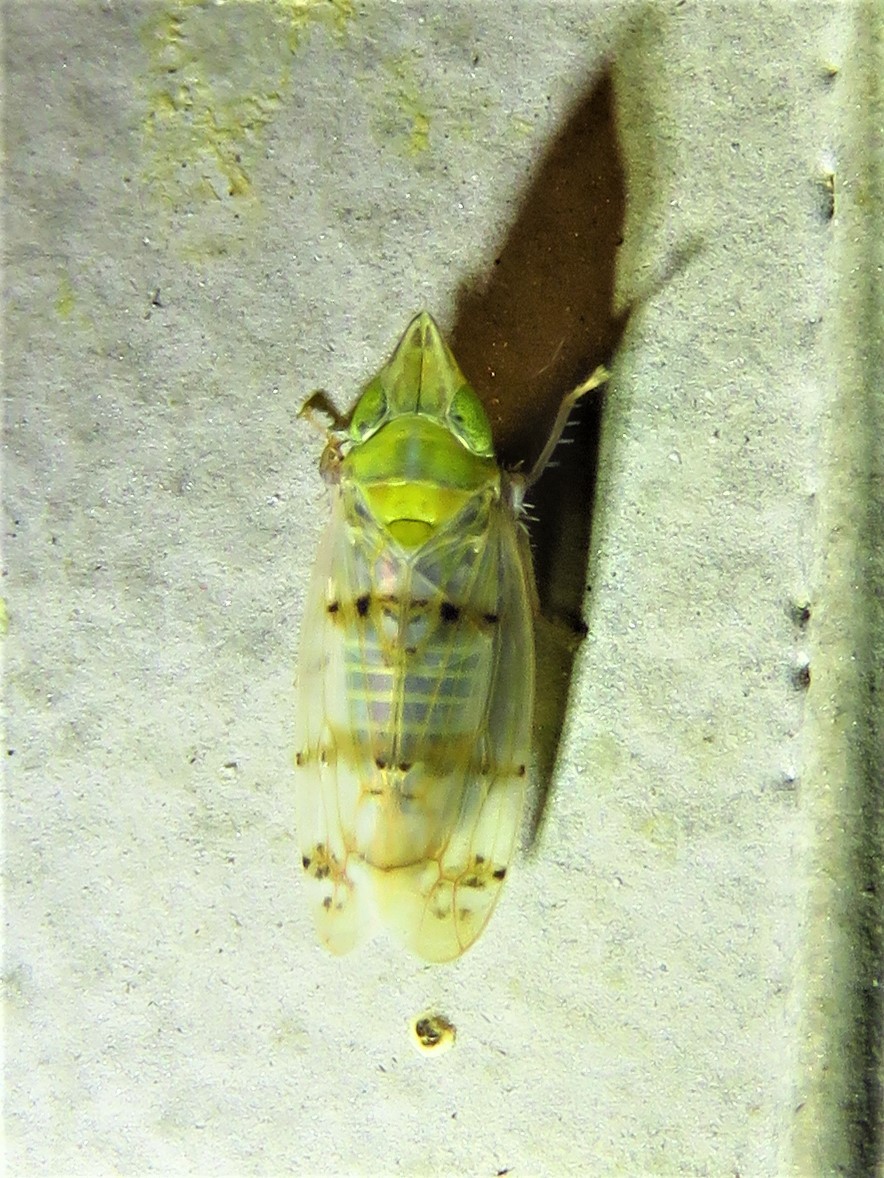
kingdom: Animalia
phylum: Arthropoda
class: Insecta
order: Hemiptera
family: Cicadellidae
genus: Japananus
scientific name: Japananus hyalinus
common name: The japanese maple leafhopper
